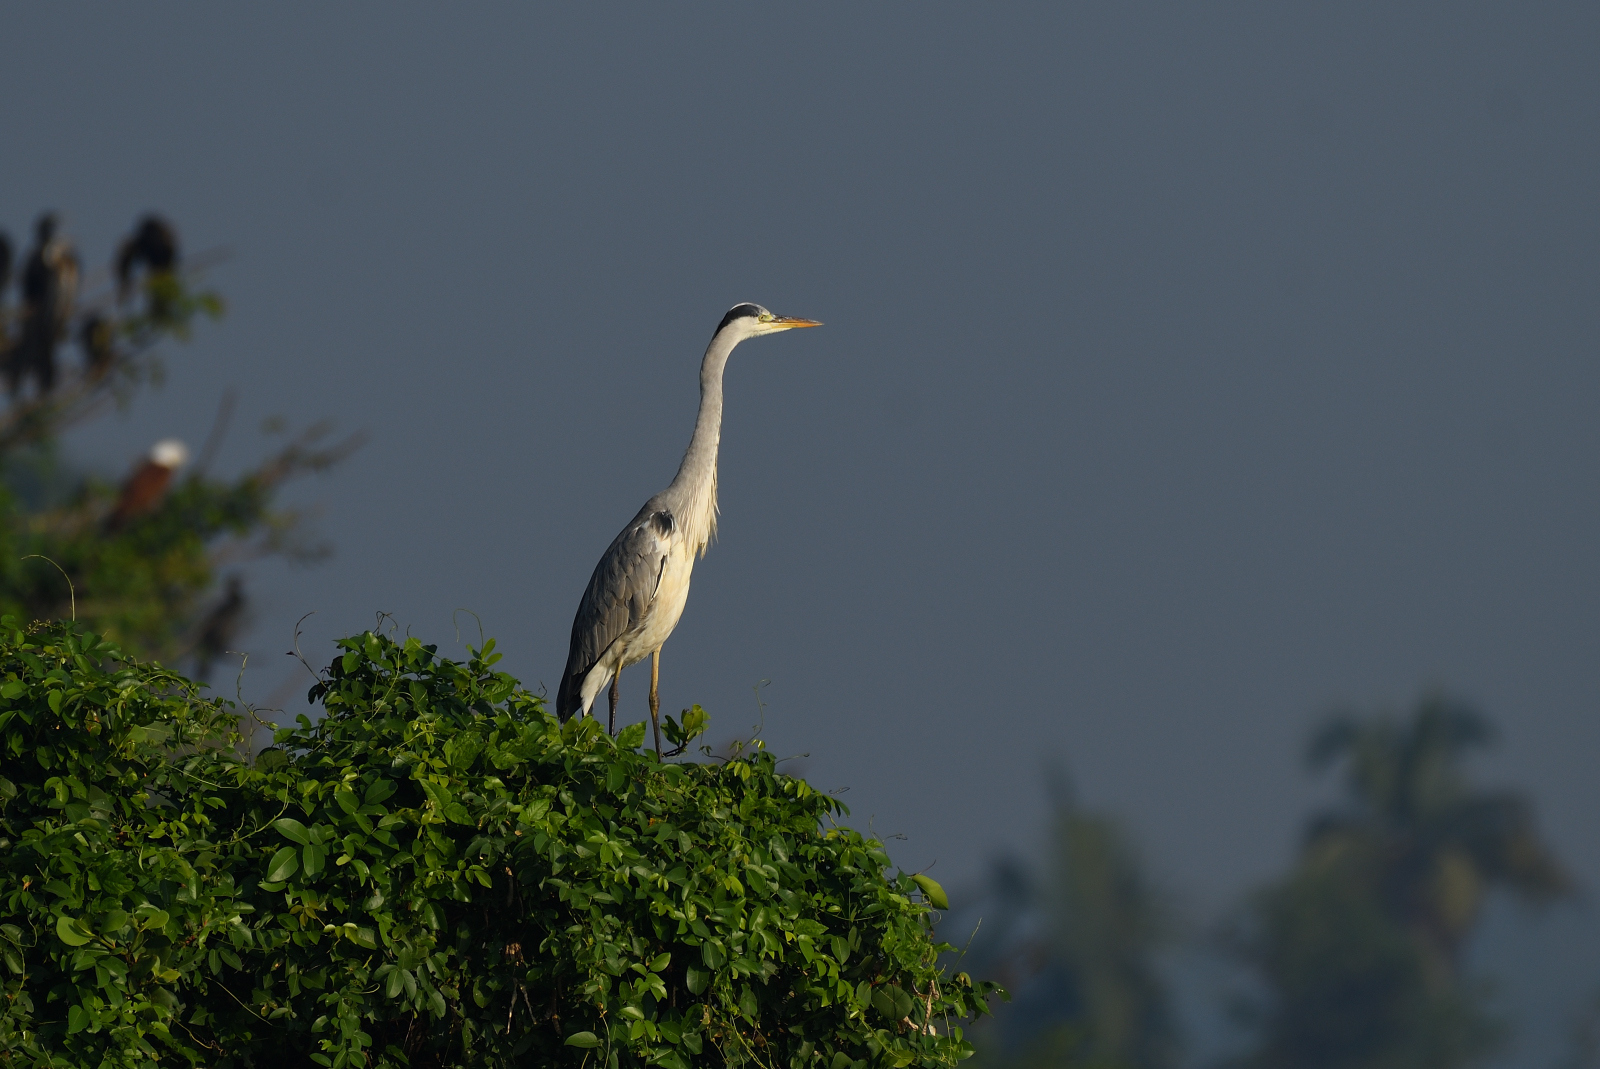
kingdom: Animalia
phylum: Chordata
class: Aves
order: Pelecaniformes
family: Ardeidae
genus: Ardea
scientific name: Ardea cinerea
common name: Grey heron
